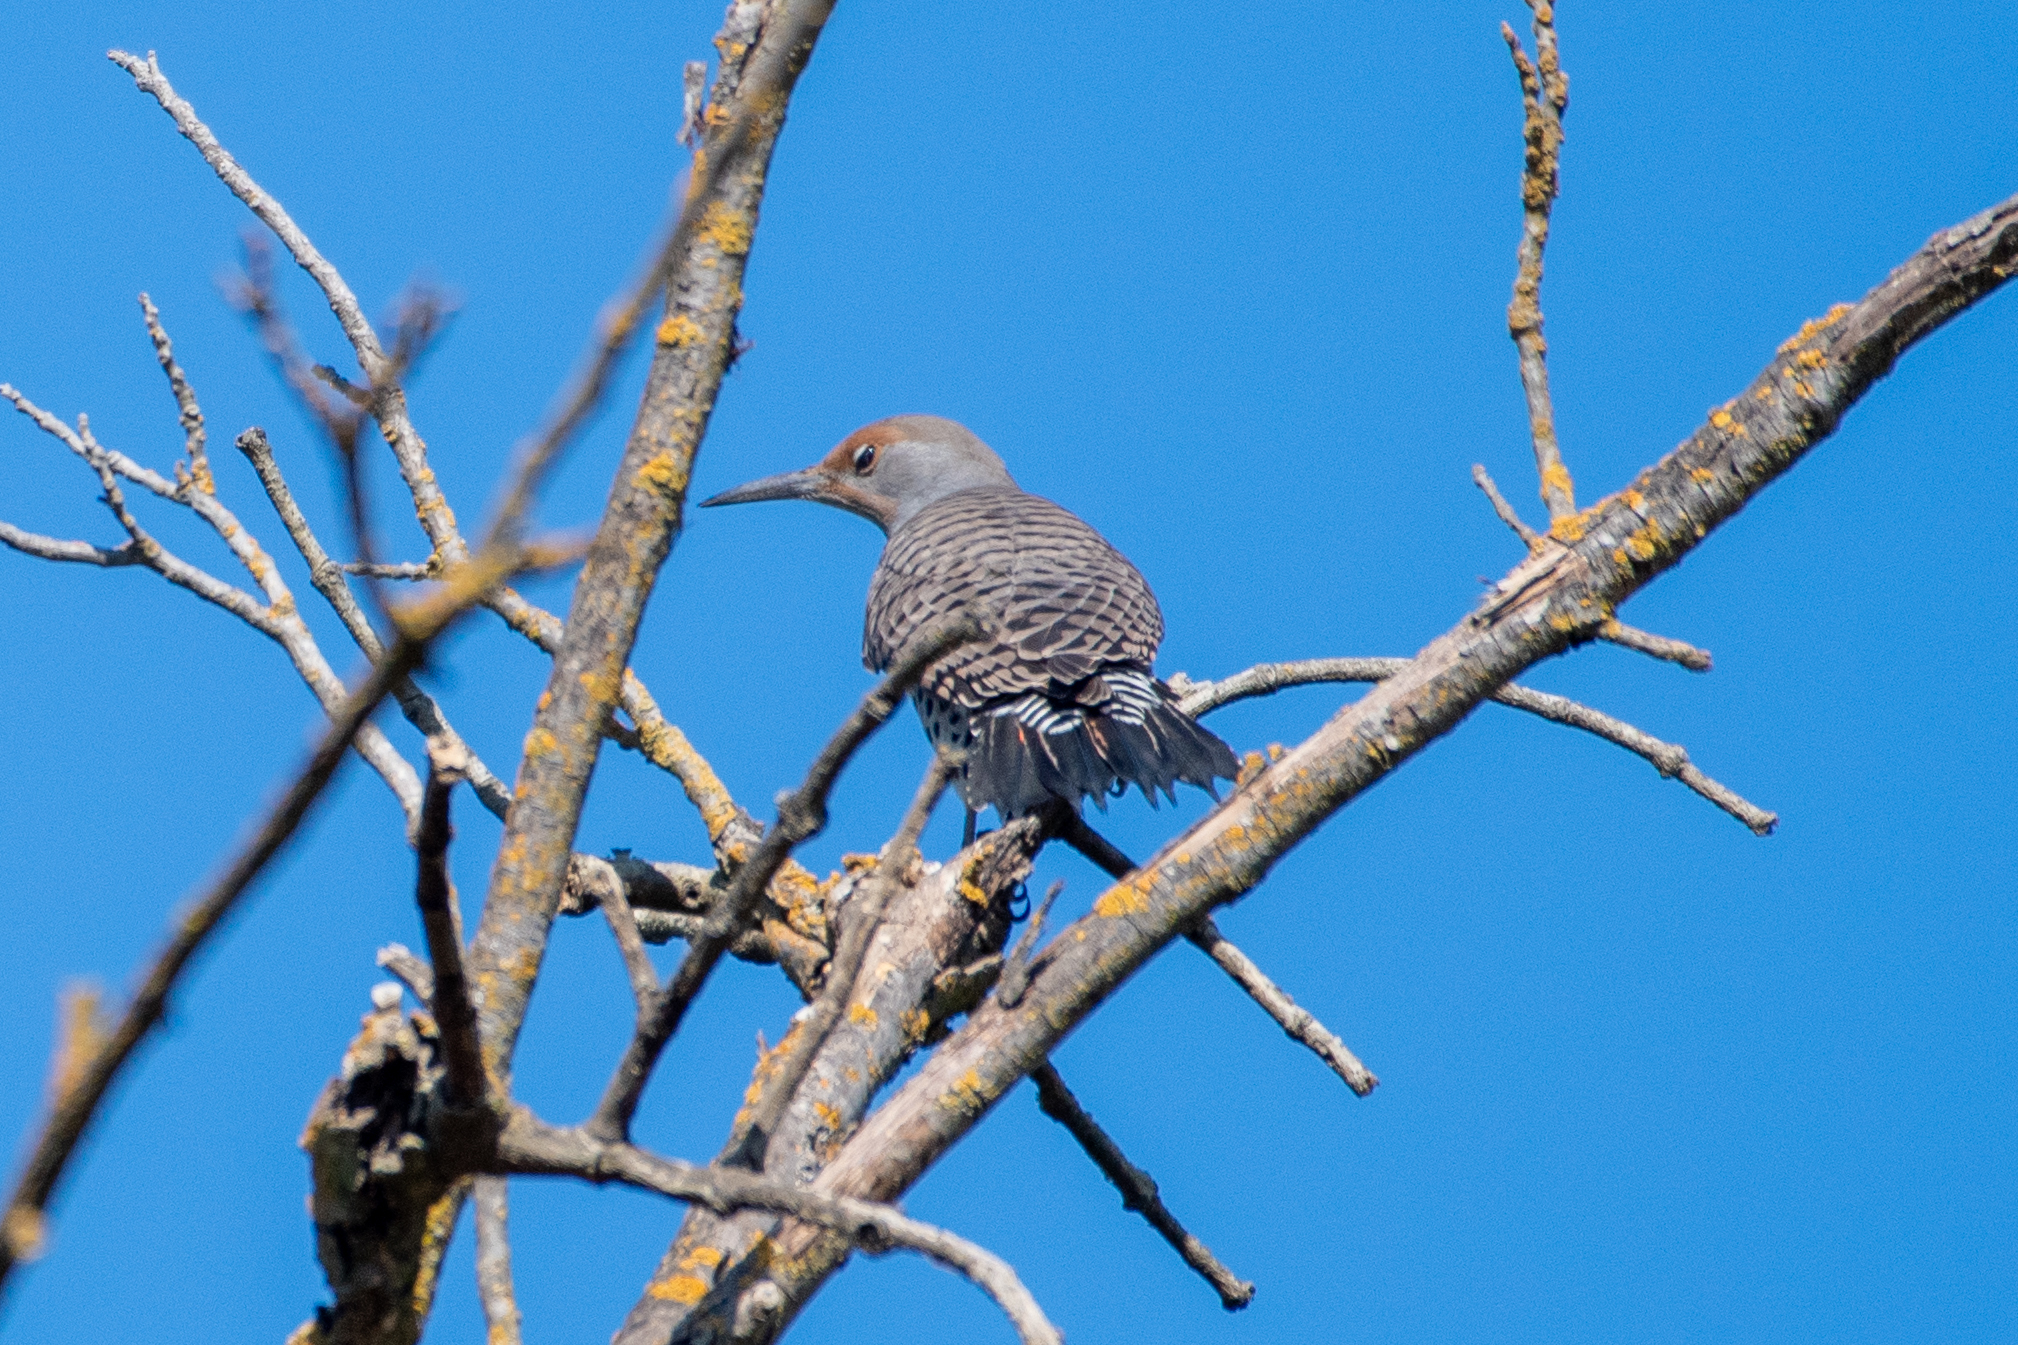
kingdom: Animalia
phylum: Chordata
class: Aves
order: Piciformes
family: Picidae
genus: Colaptes
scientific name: Colaptes auratus
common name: Northern flicker
